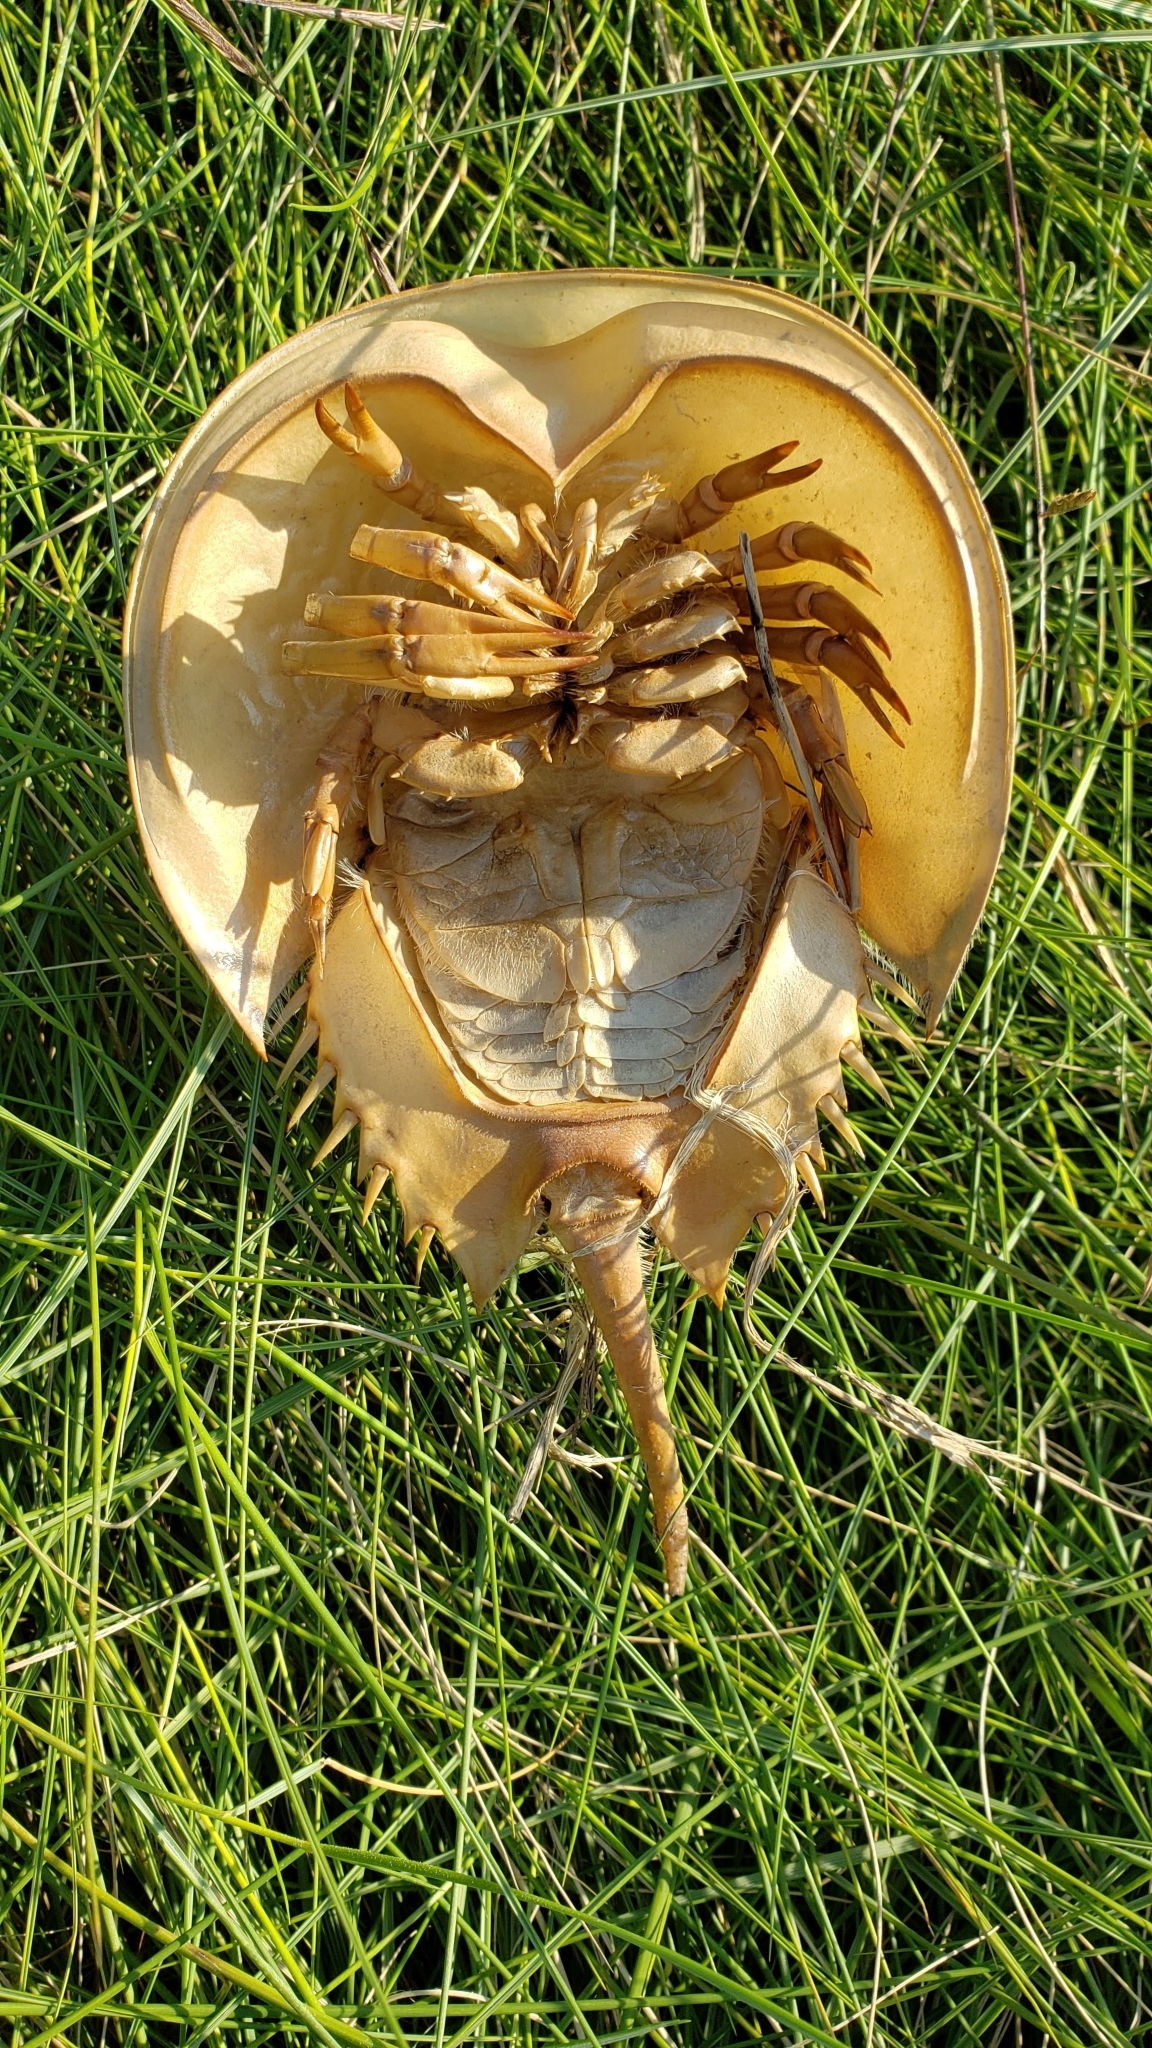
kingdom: Animalia
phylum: Arthropoda
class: Merostomata
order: Xiphosurida
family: Limulidae
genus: Limulus
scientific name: Limulus polyphemus
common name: Horseshoe crab
